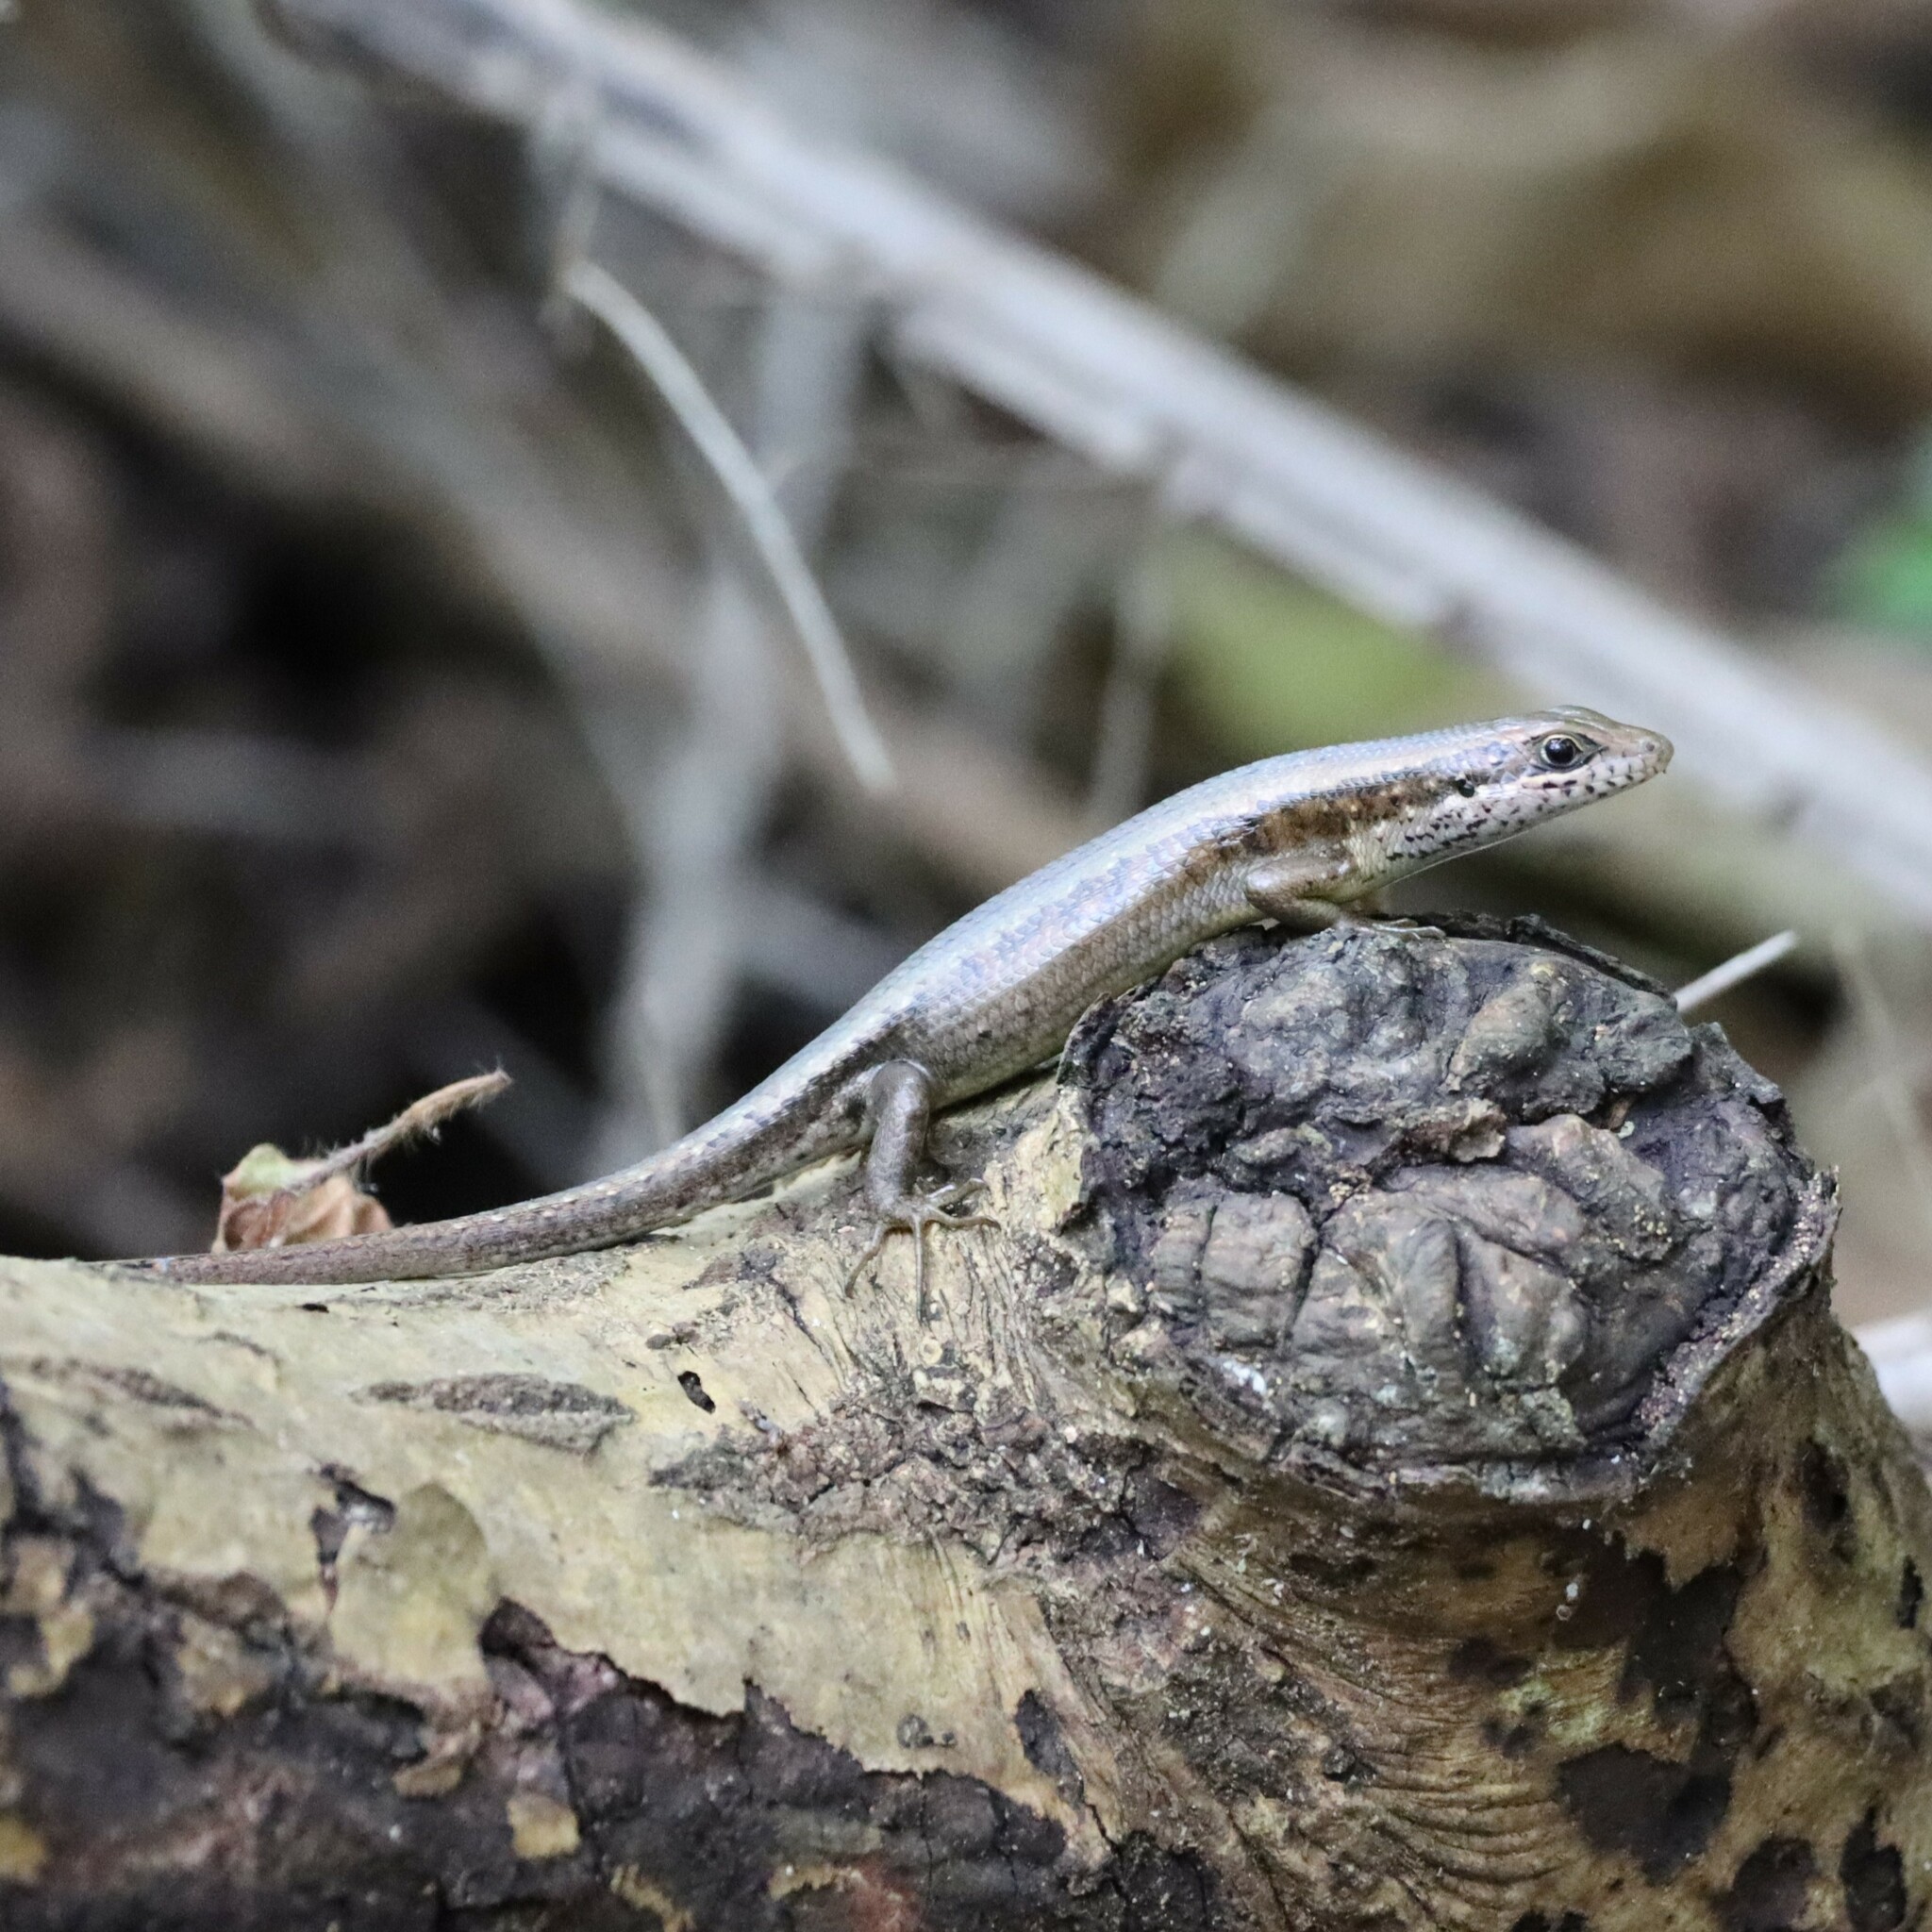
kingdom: Animalia
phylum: Chordata
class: Squamata
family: Scincidae
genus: Trachylepis
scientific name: Trachylepis maculilabris
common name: Speckle-lipped mabuya
